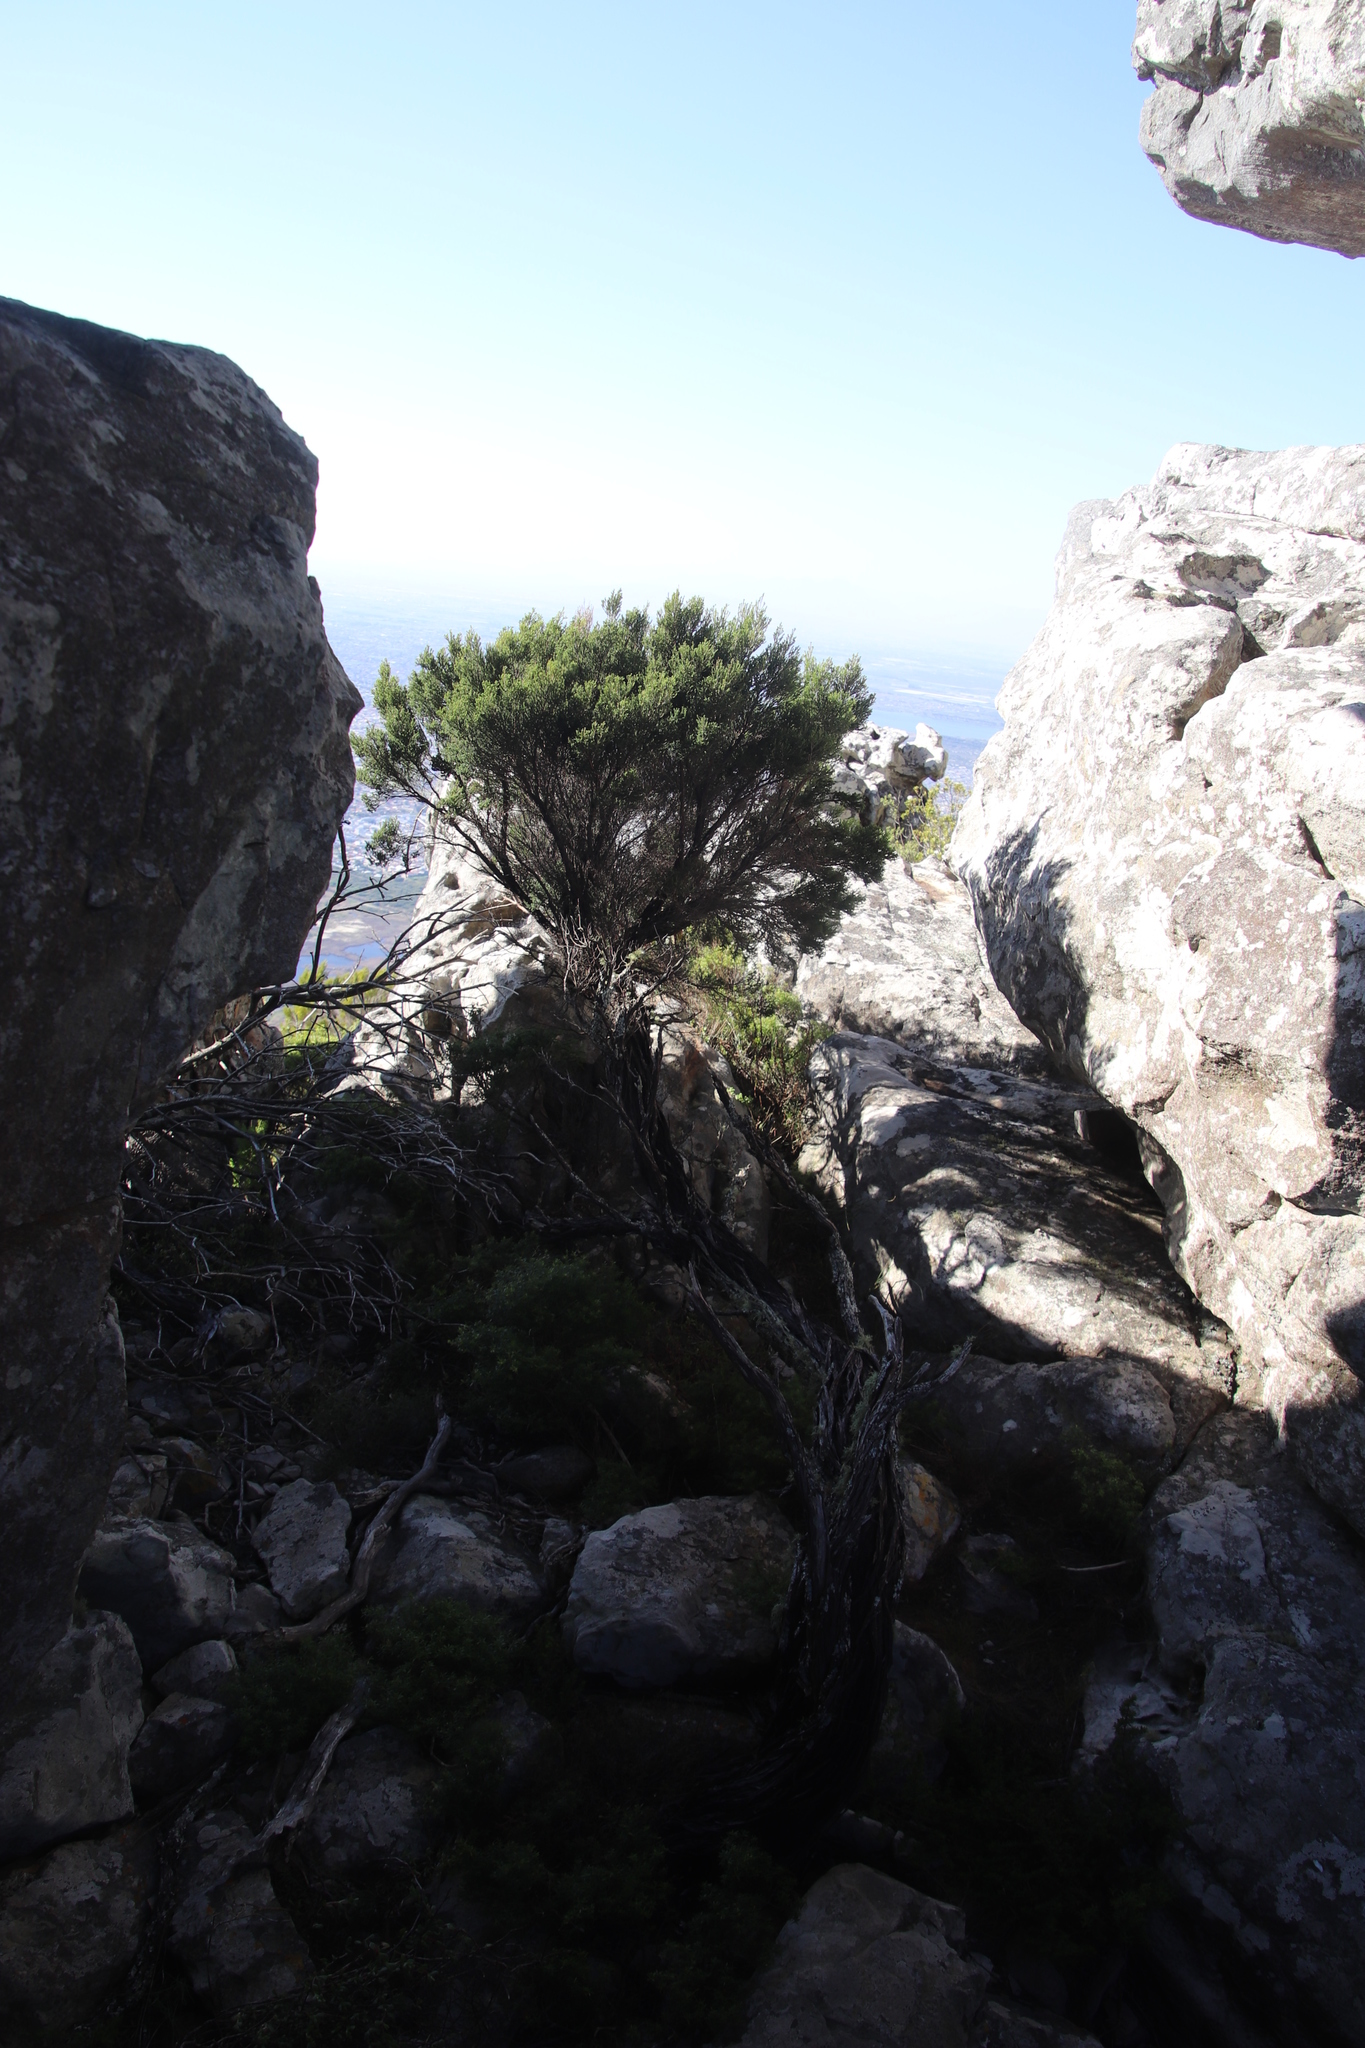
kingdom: Plantae
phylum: Tracheophyta
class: Magnoliopsida
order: Ericales
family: Ericaceae
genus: Erica
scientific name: Erica tristis
